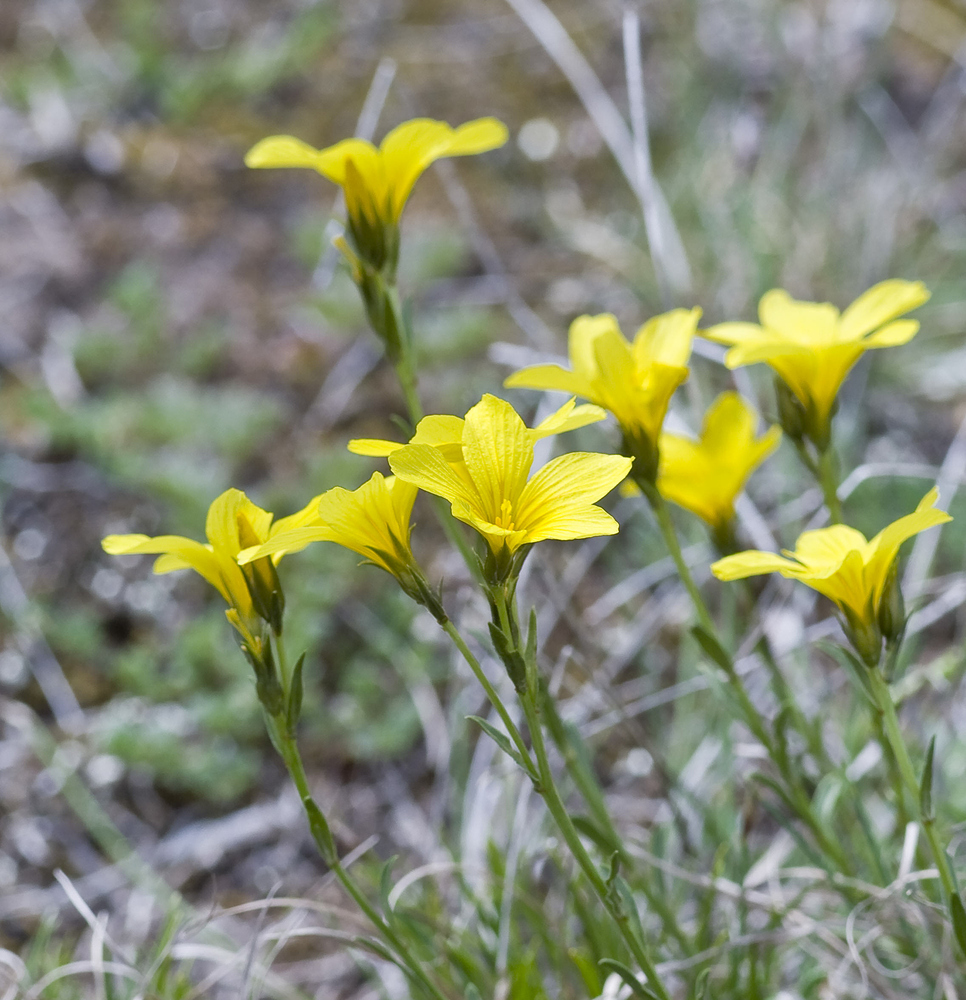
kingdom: Plantae
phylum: Tracheophyta
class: Magnoliopsida
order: Malpighiales
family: Linaceae
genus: Linum
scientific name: Linum campanulatum
